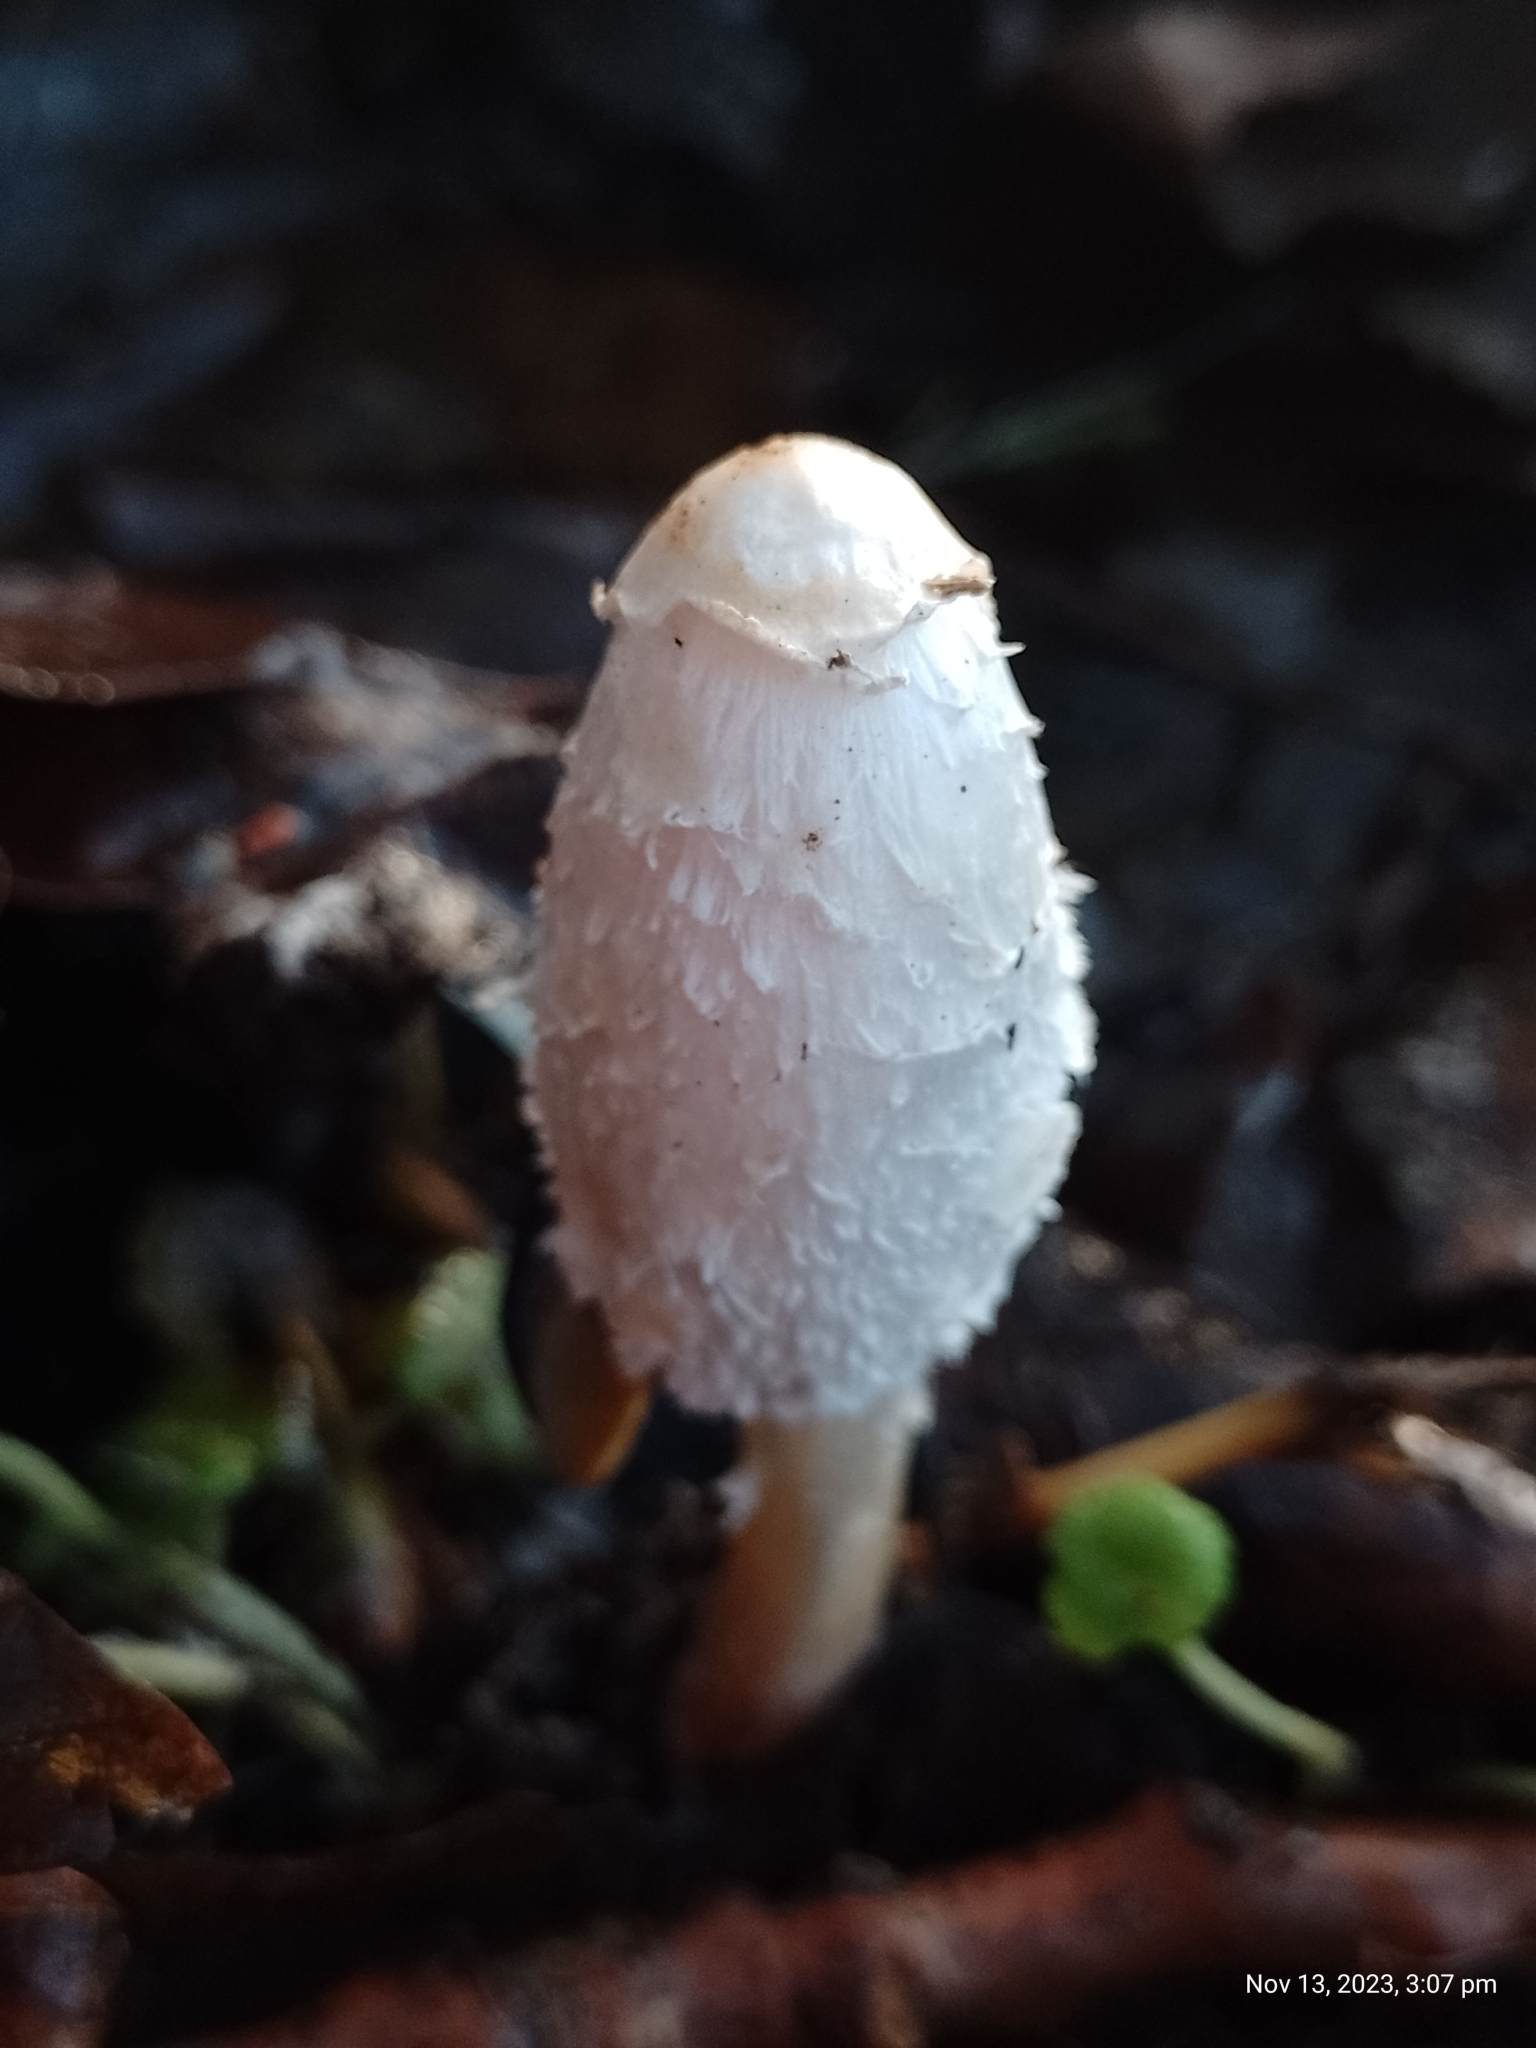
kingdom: Fungi
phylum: Basidiomycota
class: Agaricomycetes
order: Agaricales
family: Agaricaceae
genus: Coprinus
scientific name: Coprinus comatus
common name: Lawyer's wig
